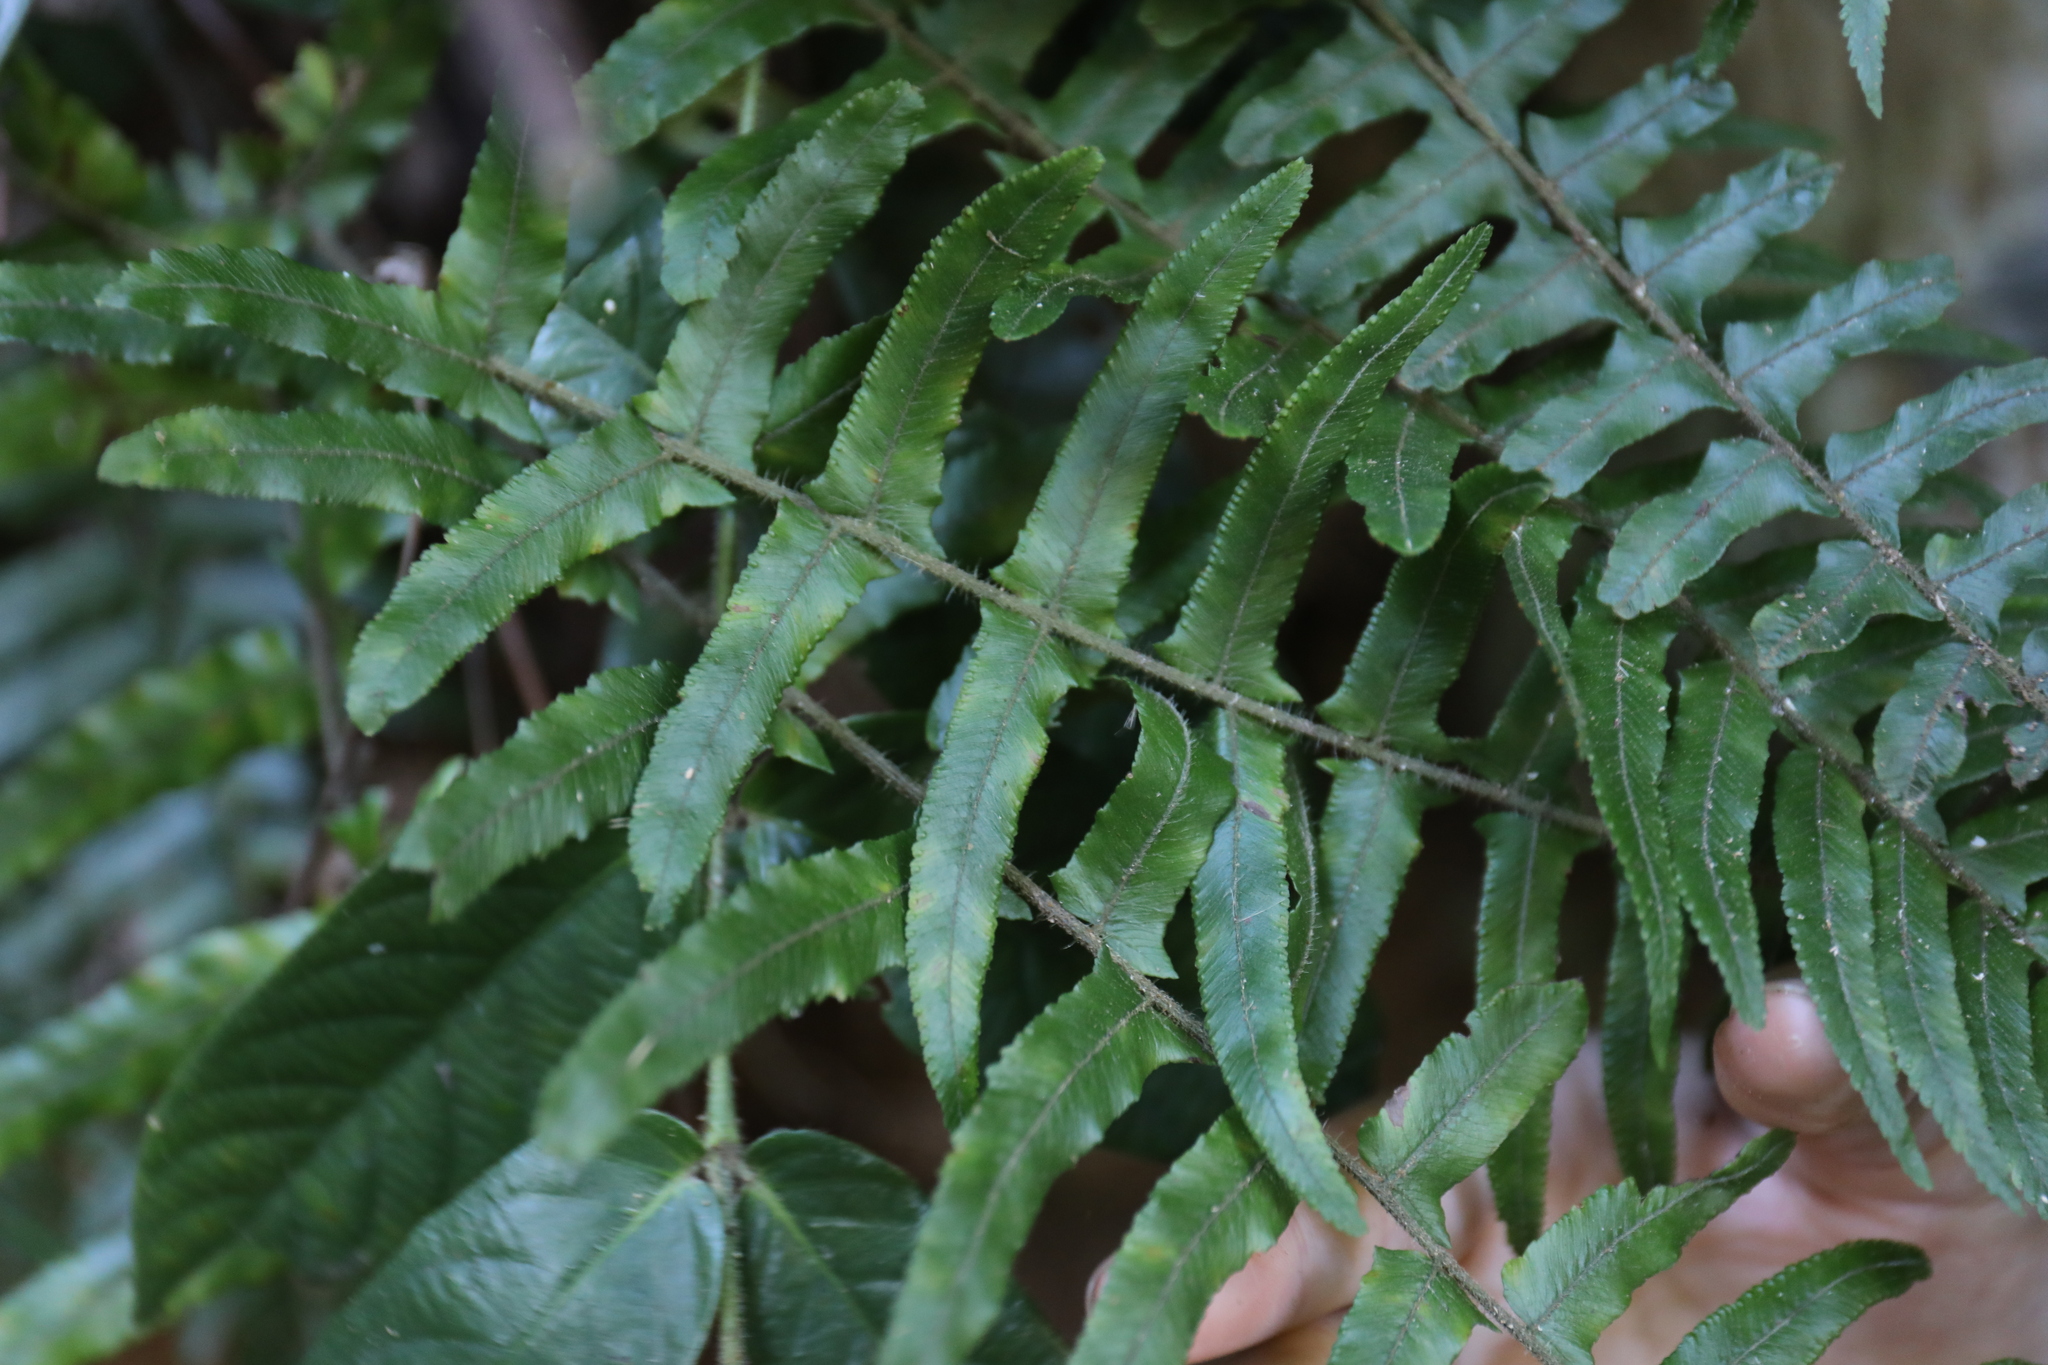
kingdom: Plantae
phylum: Tracheophyta
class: Polypodiopsida
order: Polypodiales
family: Dennstaedtiaceae
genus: Microlepia
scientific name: Microlepia hookeriana
